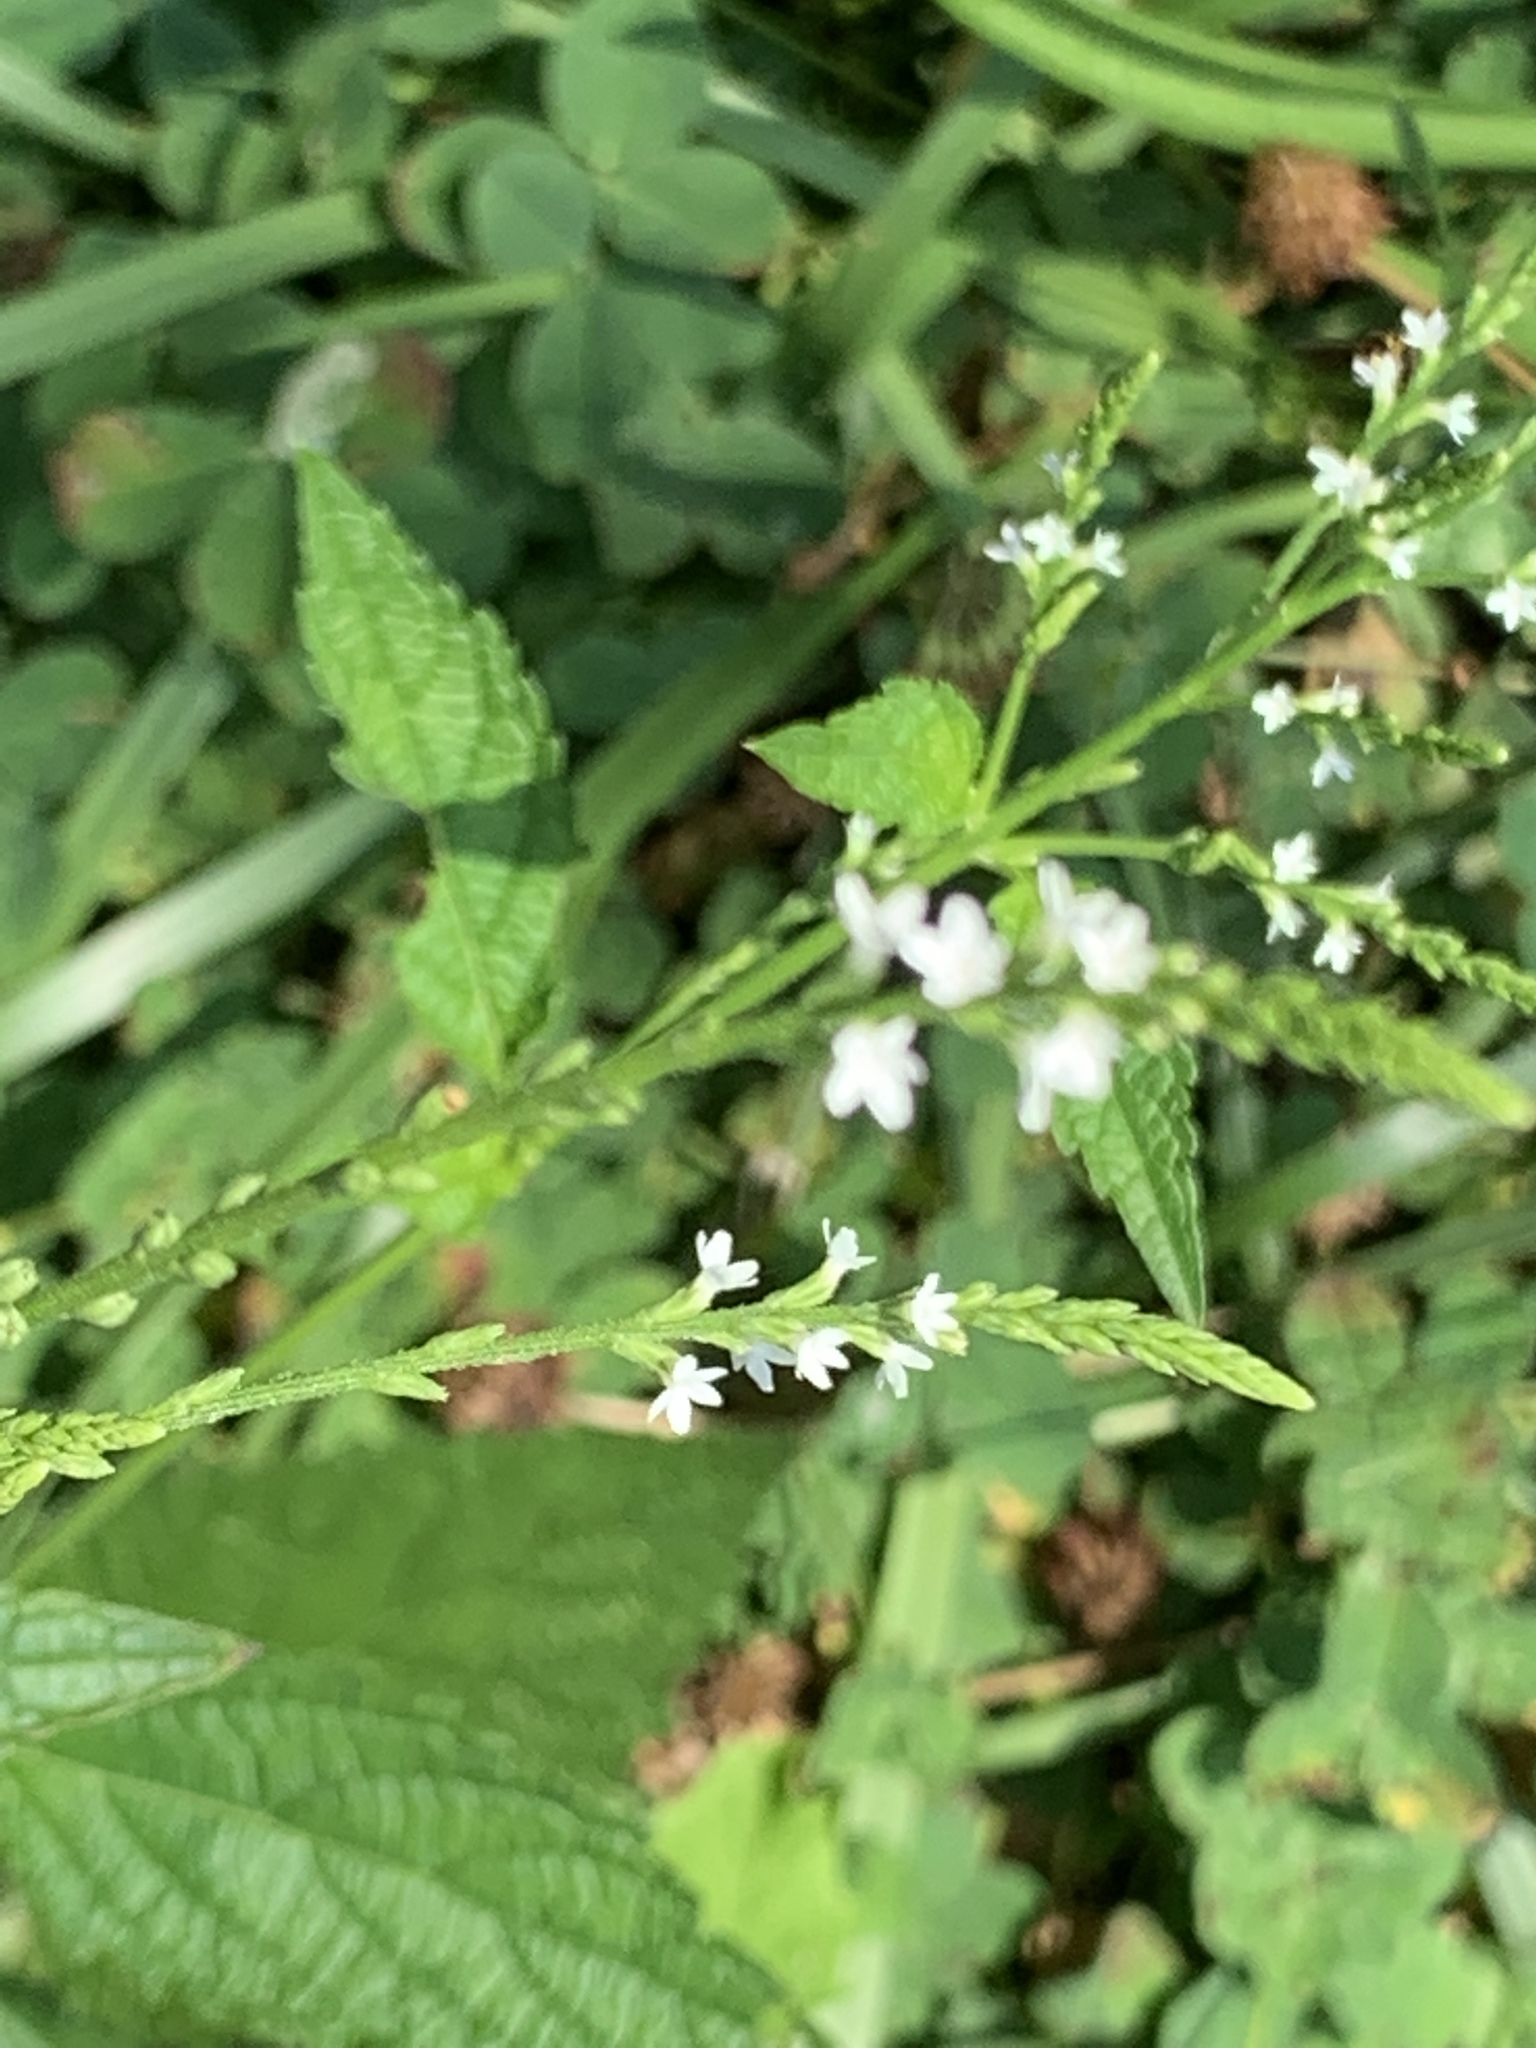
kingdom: Plantae
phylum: Tracheophyta
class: Magnoliopsida
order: Lamiales
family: Verbenaceae
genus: Verbena
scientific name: Verbena urticifolia
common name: Nettle-leaved vervain
